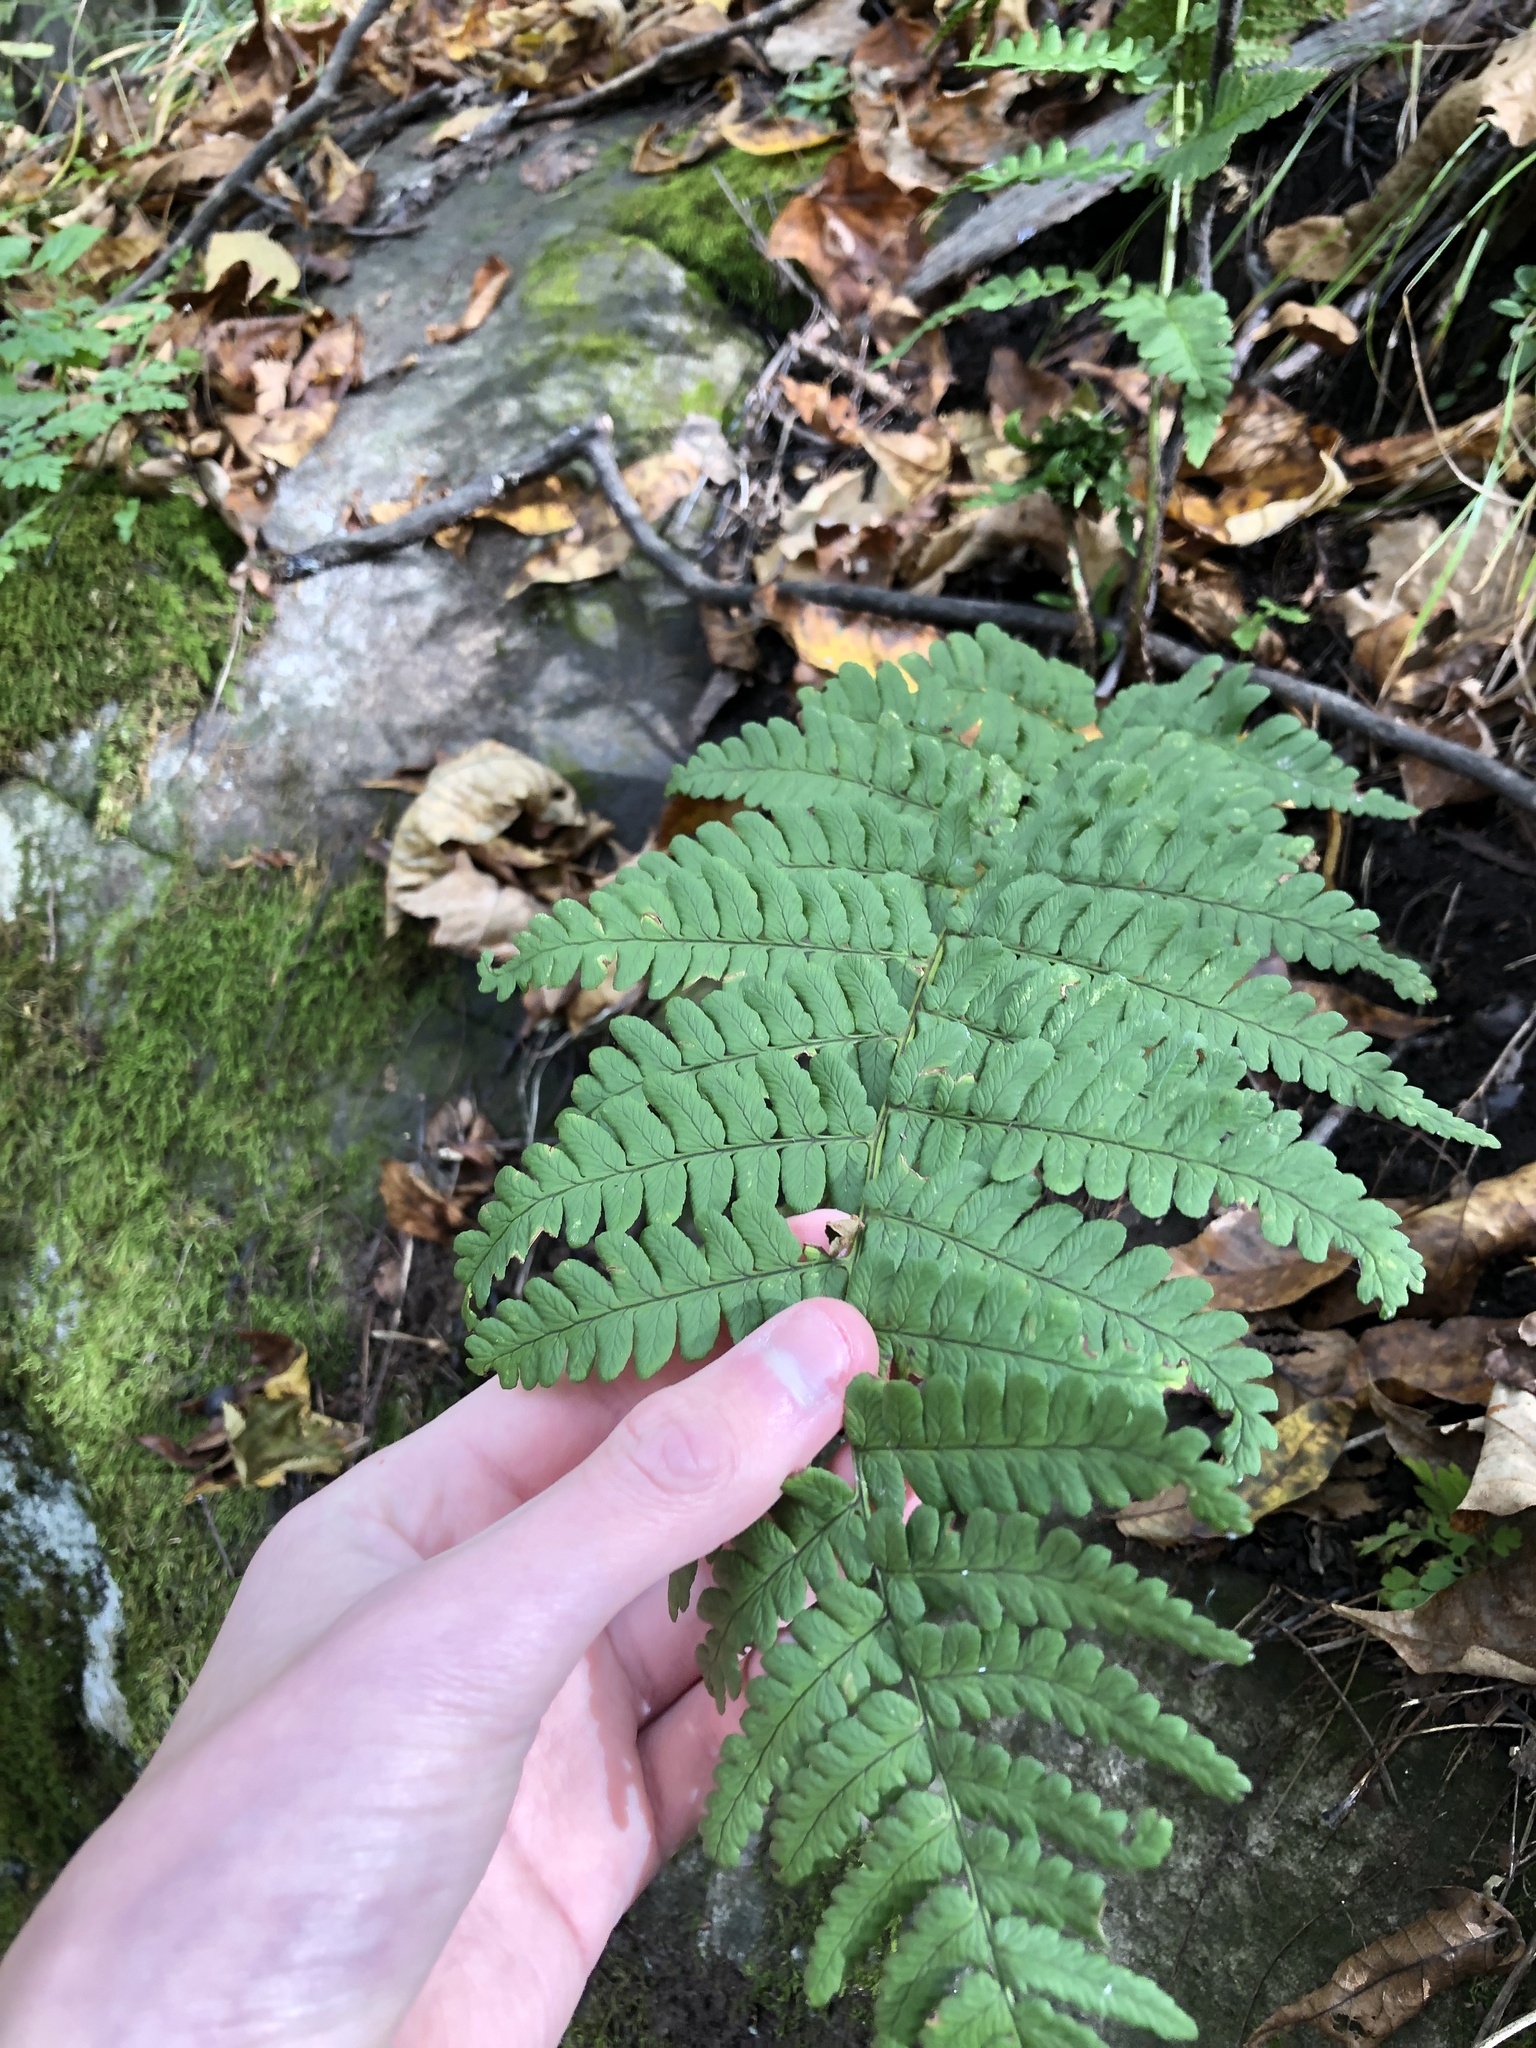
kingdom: Plantae
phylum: Tracheophyta
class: Polypodiopsida
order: Polypodiales
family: Dryopteridaceae
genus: Dryopteris
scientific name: Dryopteris marginalis
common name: Marginal wood fern
